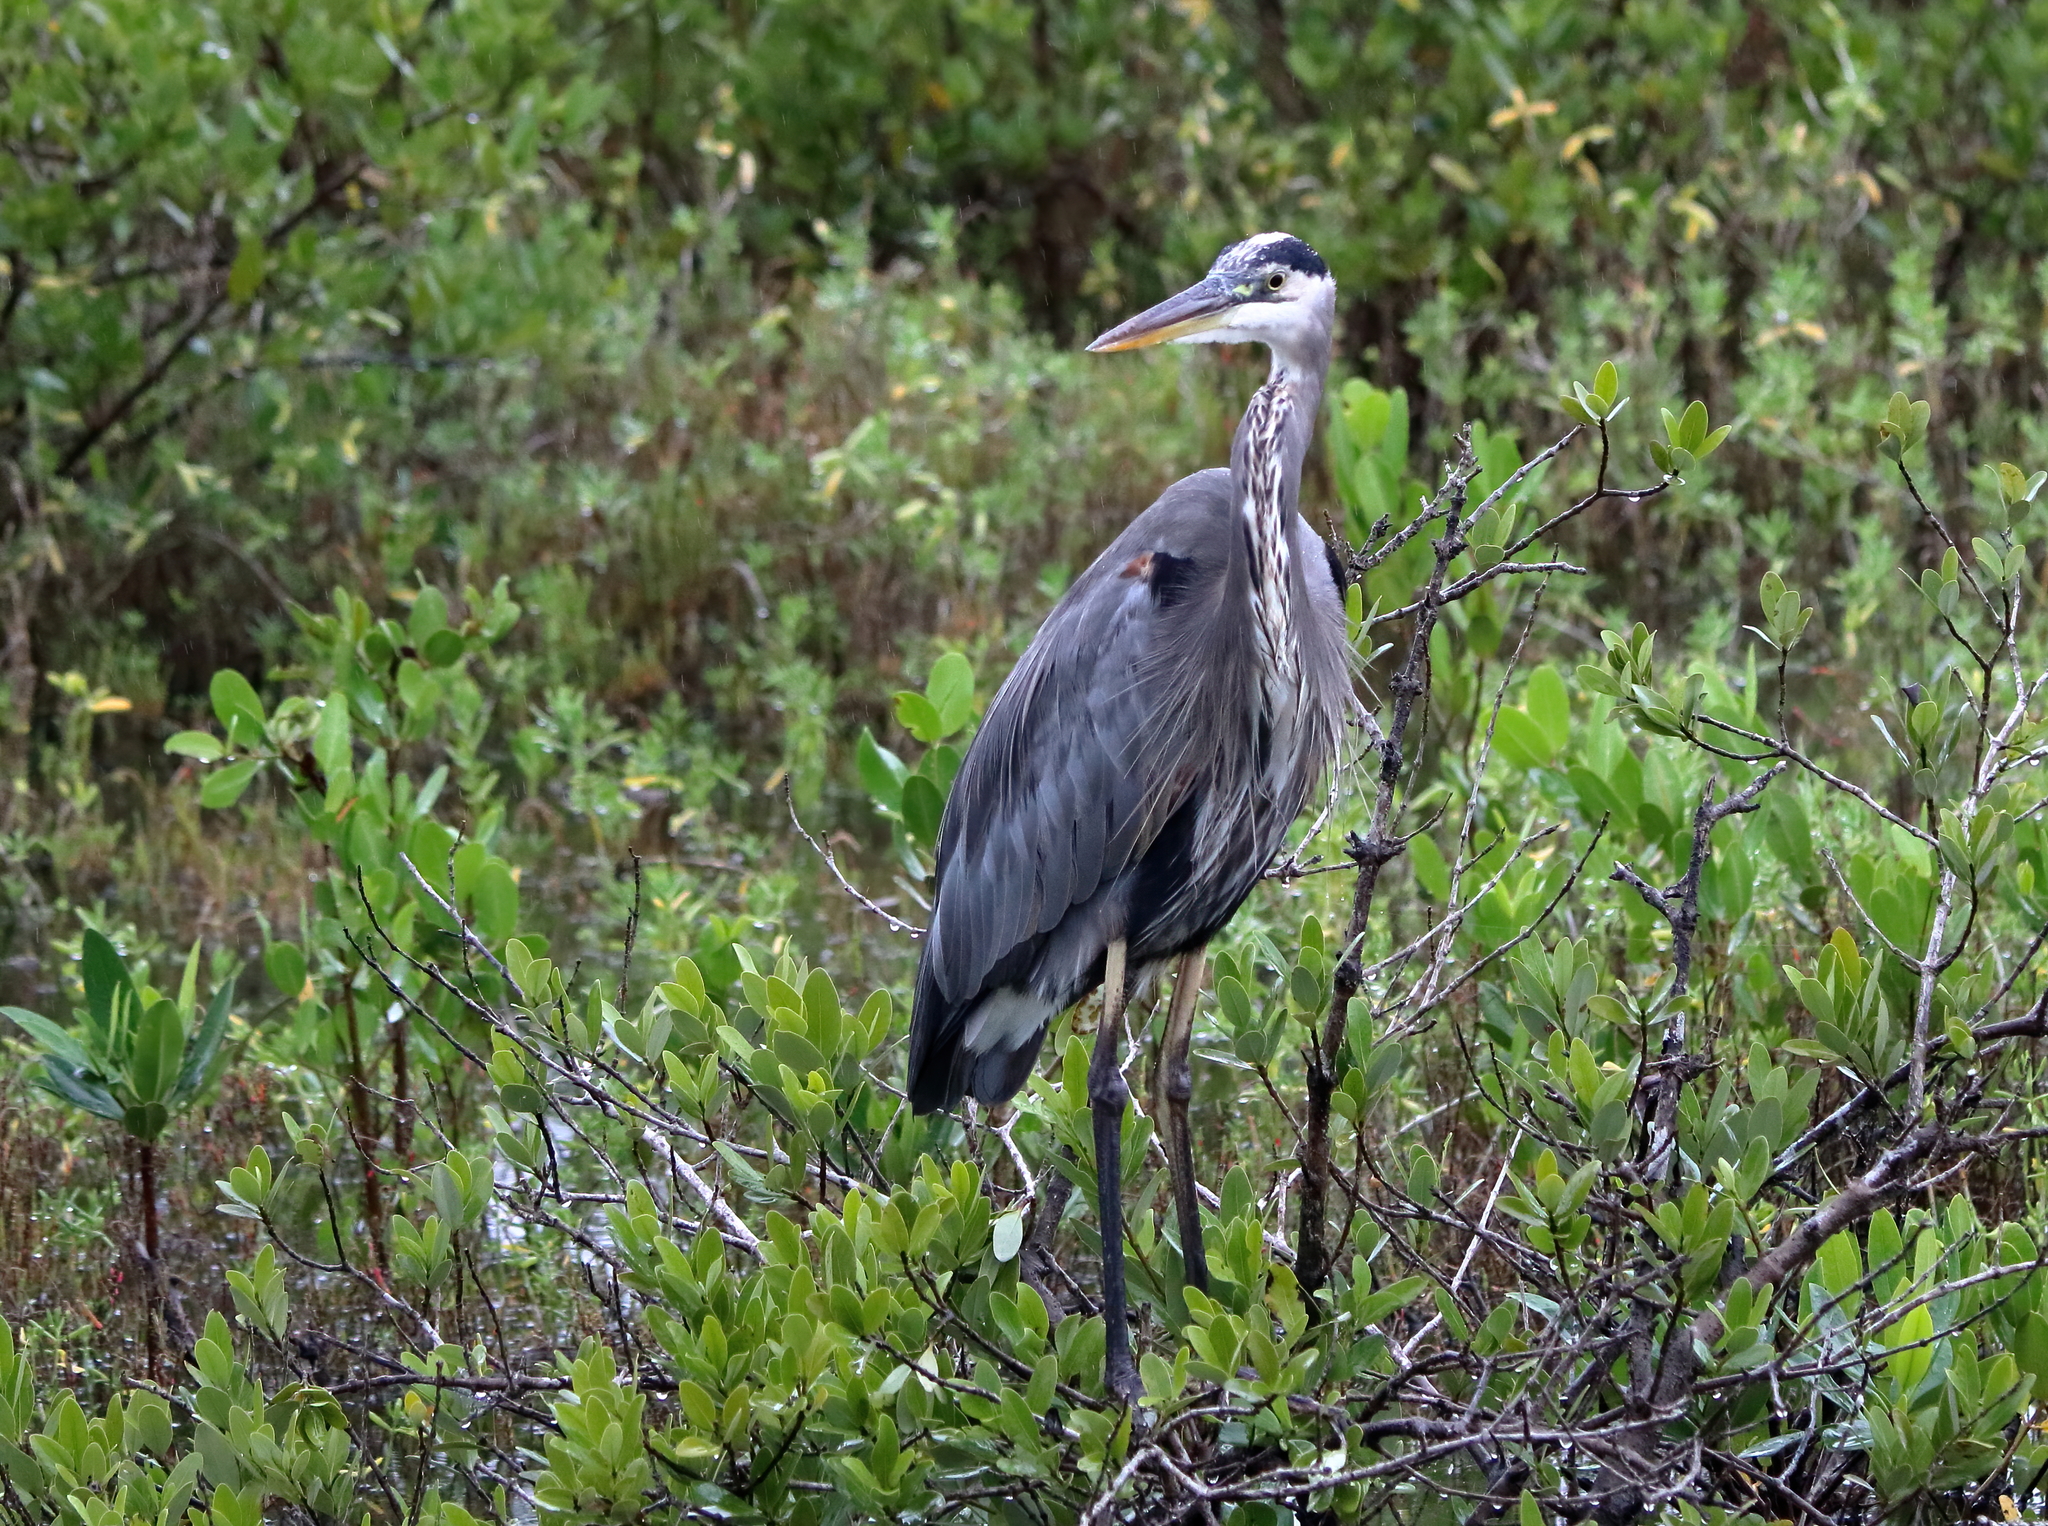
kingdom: Animalia
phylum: Chordata
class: Aves
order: Pelecaniformes
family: Ardeidae
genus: Ardea
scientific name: Ardea herodias
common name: Great blue heron
